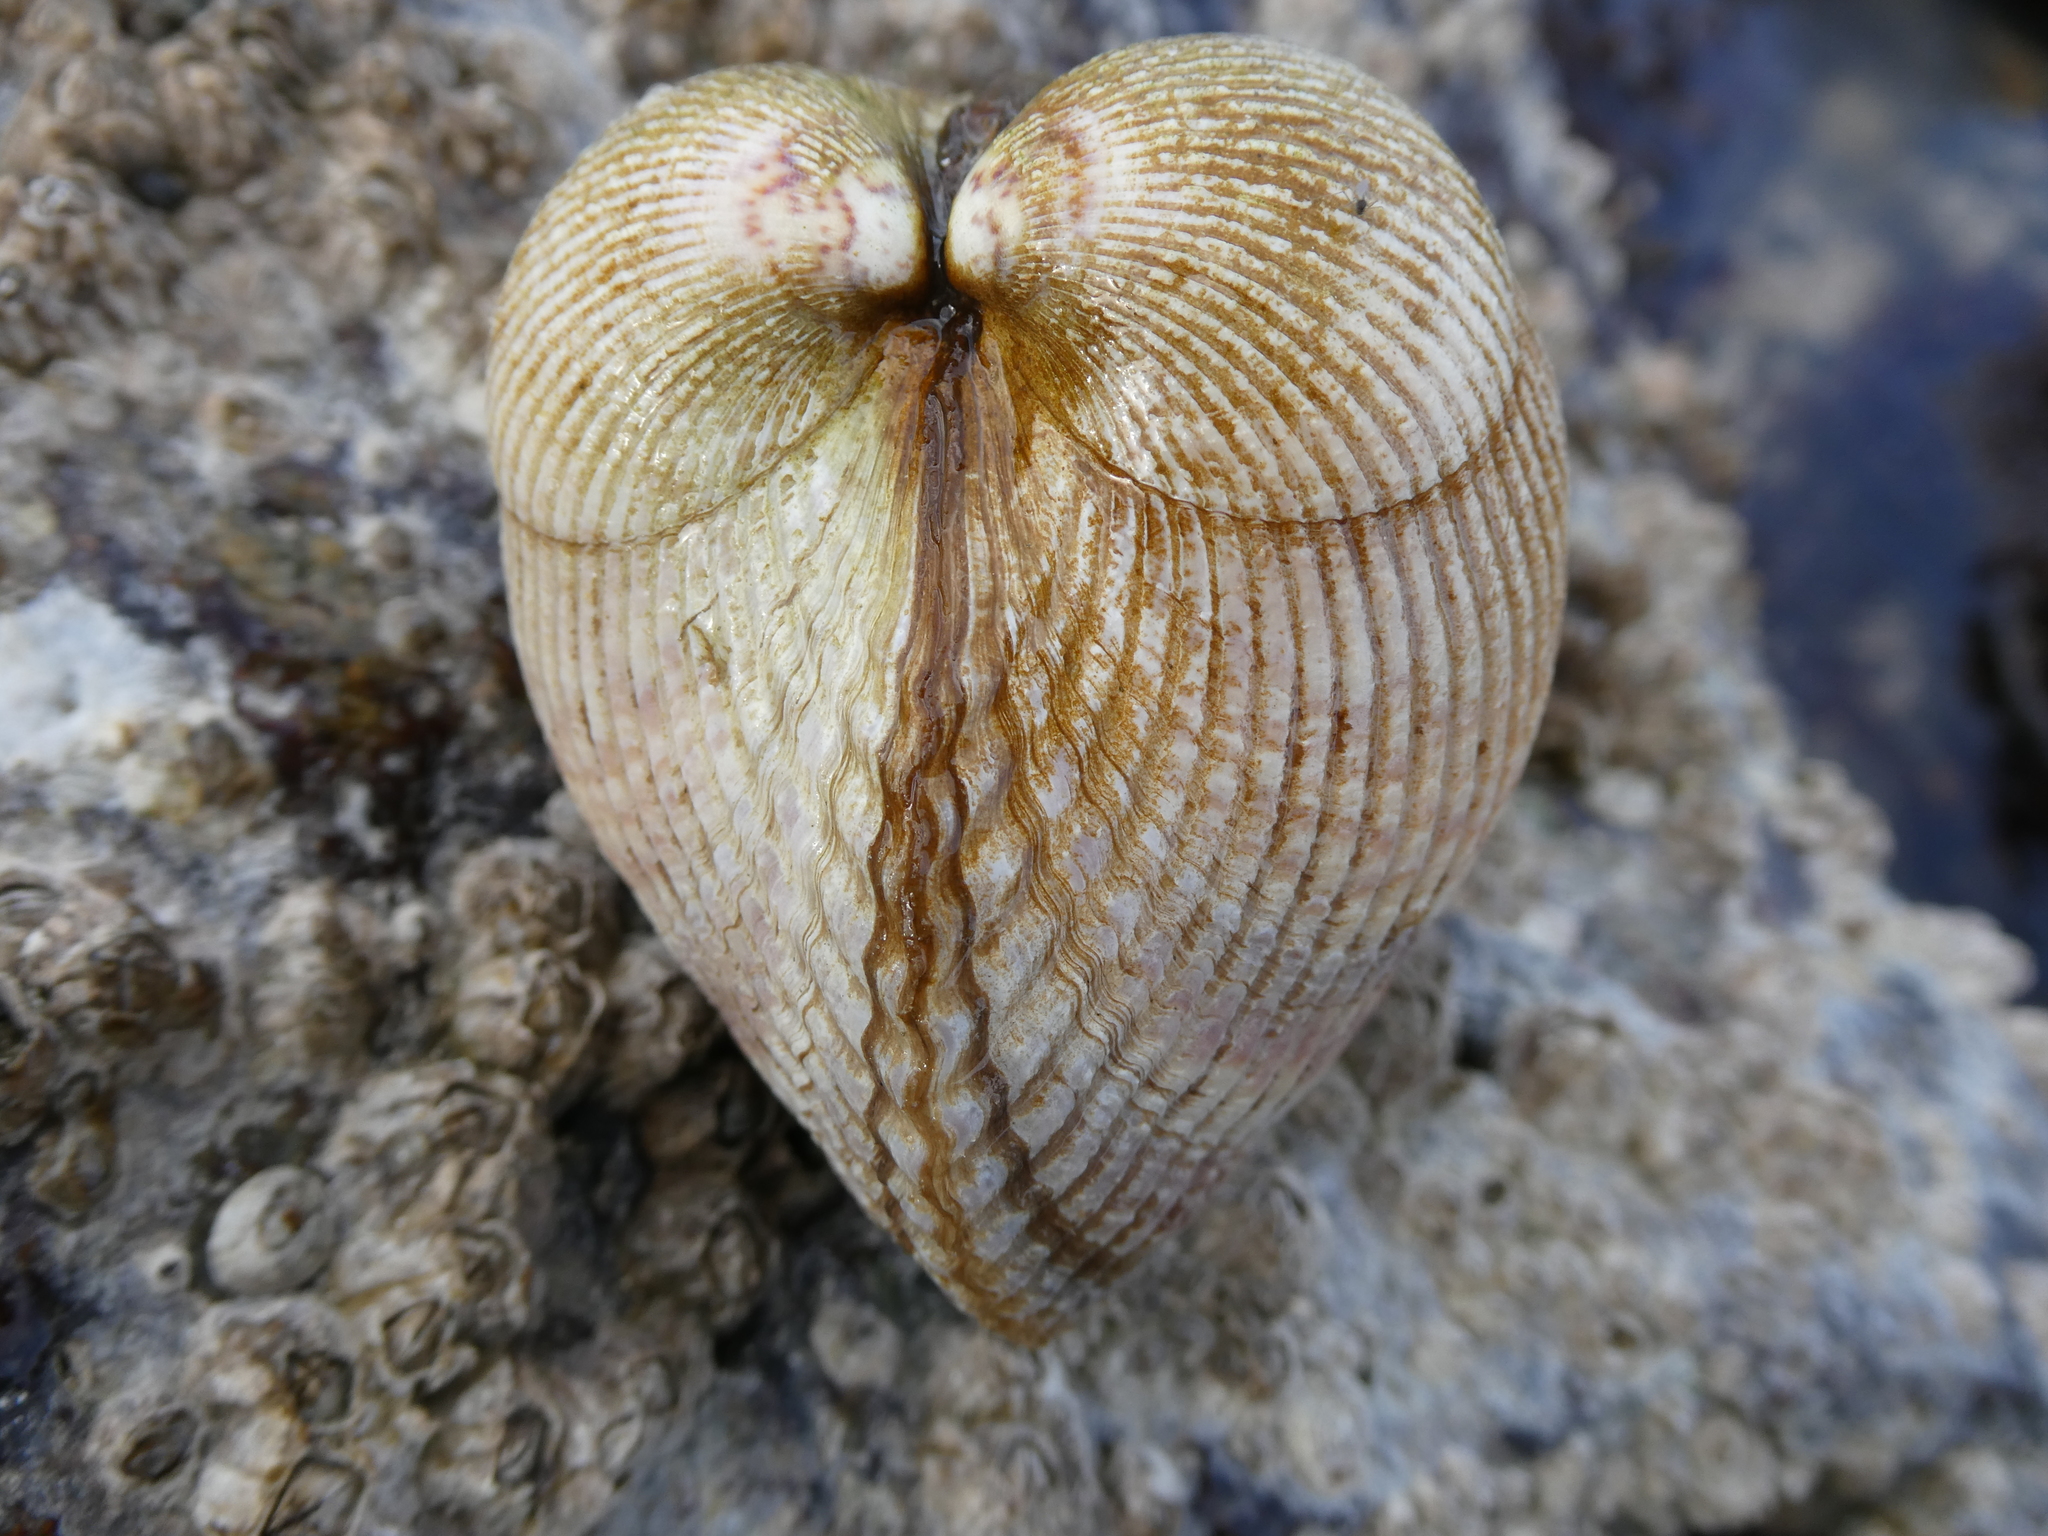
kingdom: Animalia
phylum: Mollusca
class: Bivalvia
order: Cardiida
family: Cardiidae
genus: Clinocardium
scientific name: Clinocardium nuttallii
